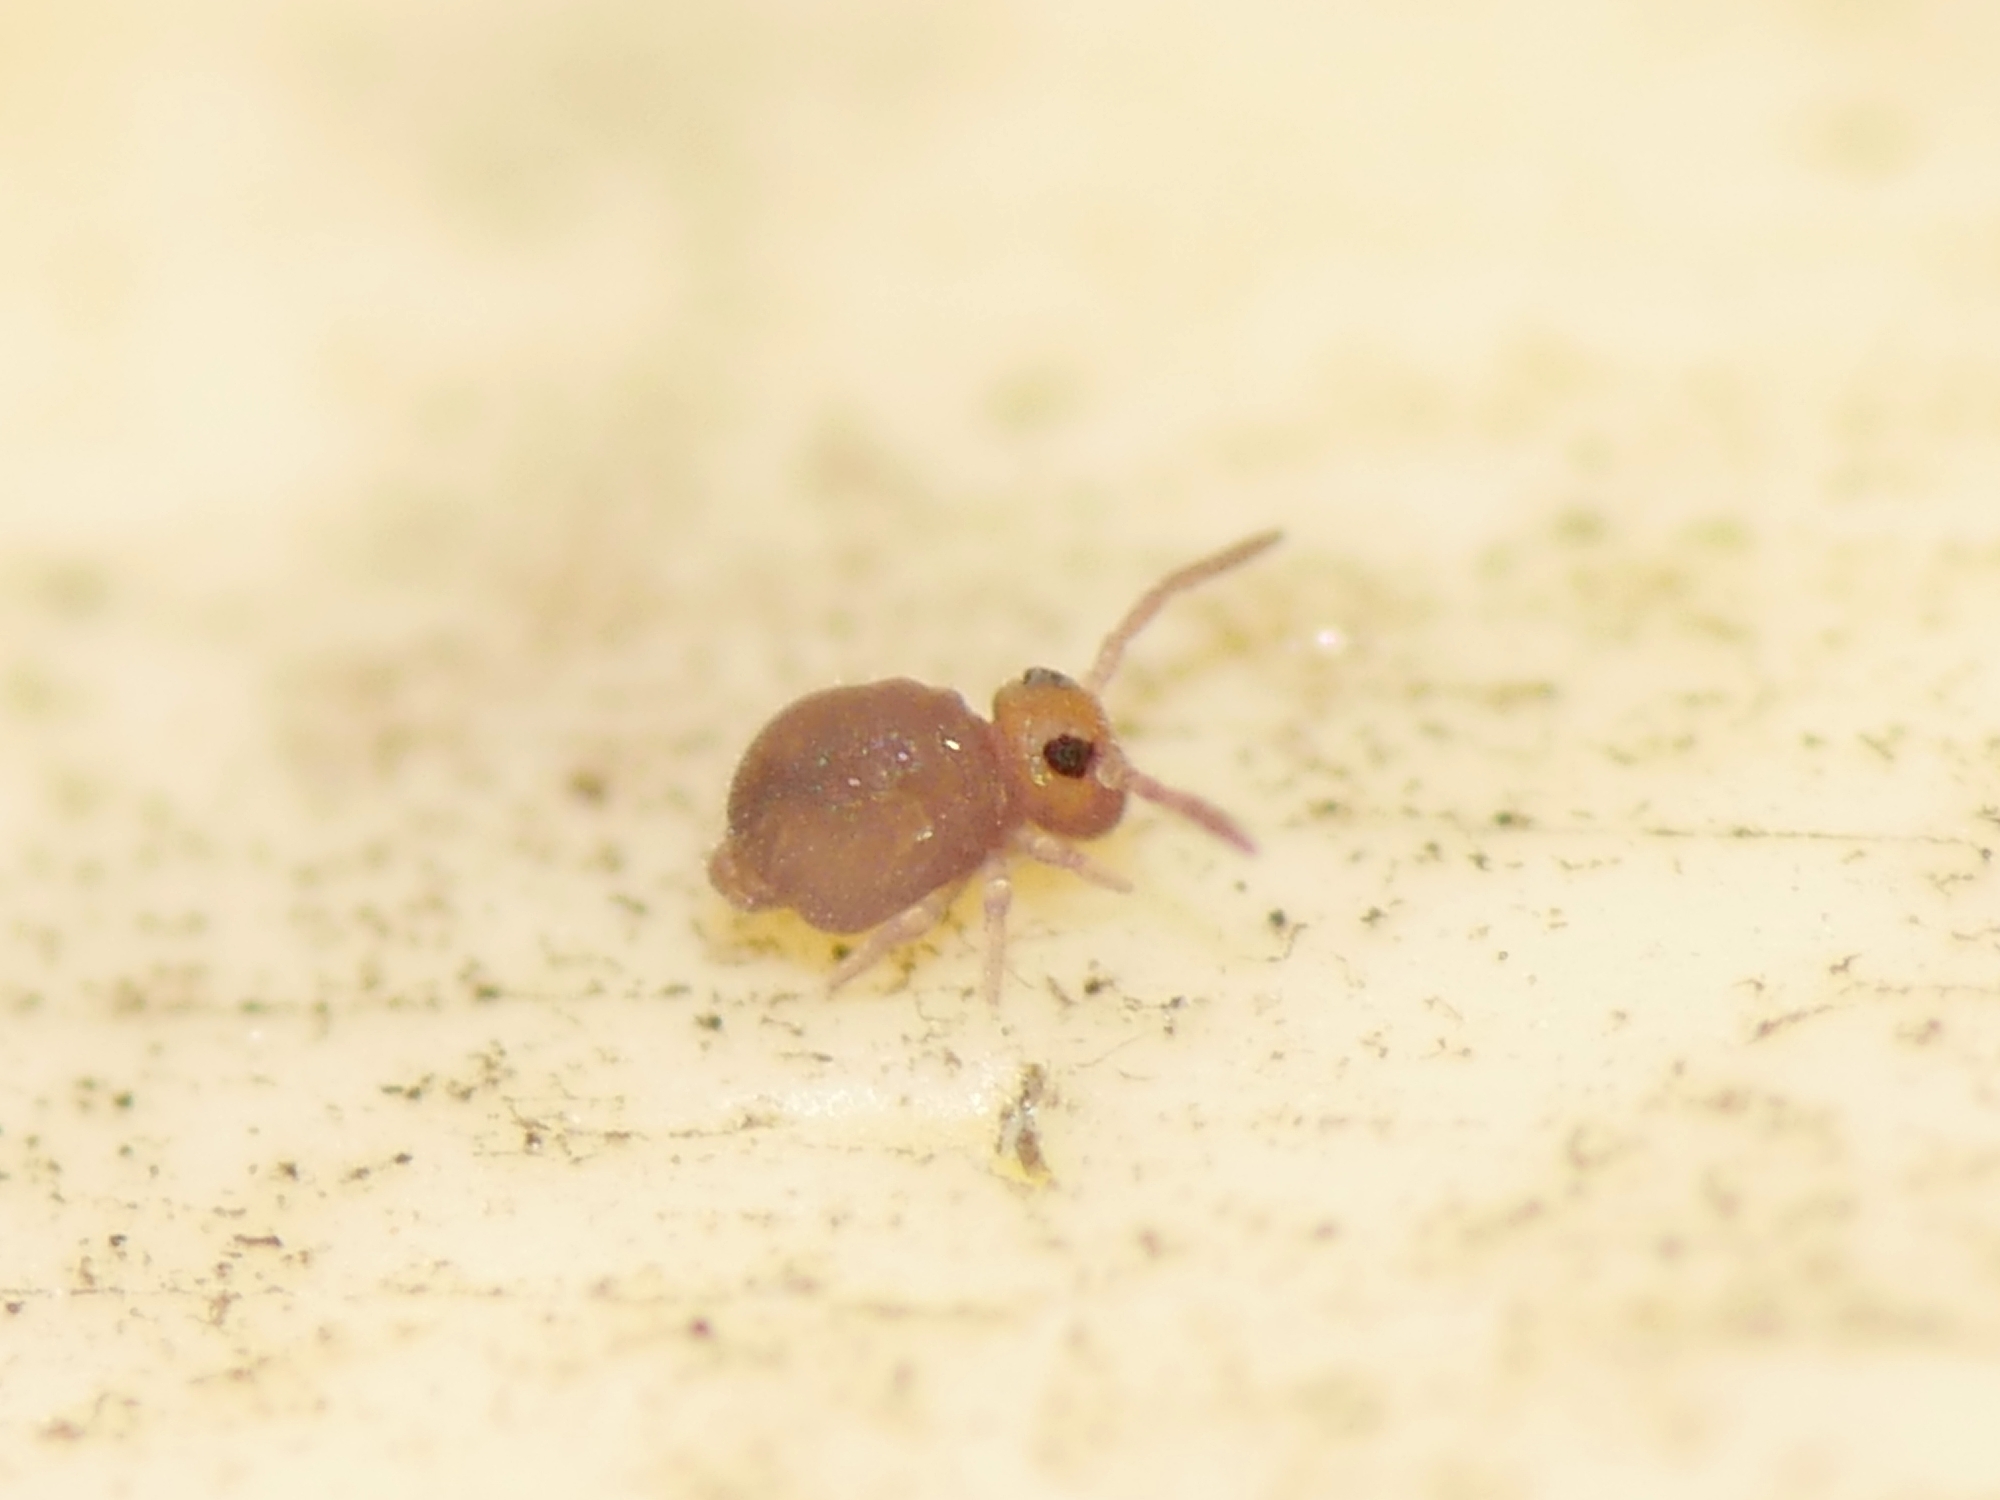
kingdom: Animalia
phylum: Arthropoda
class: Collembola
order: Symphypleona
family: Bourletiellidae
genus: Bourletiella
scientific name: Bourletiella hortensis
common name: Garden springtail
